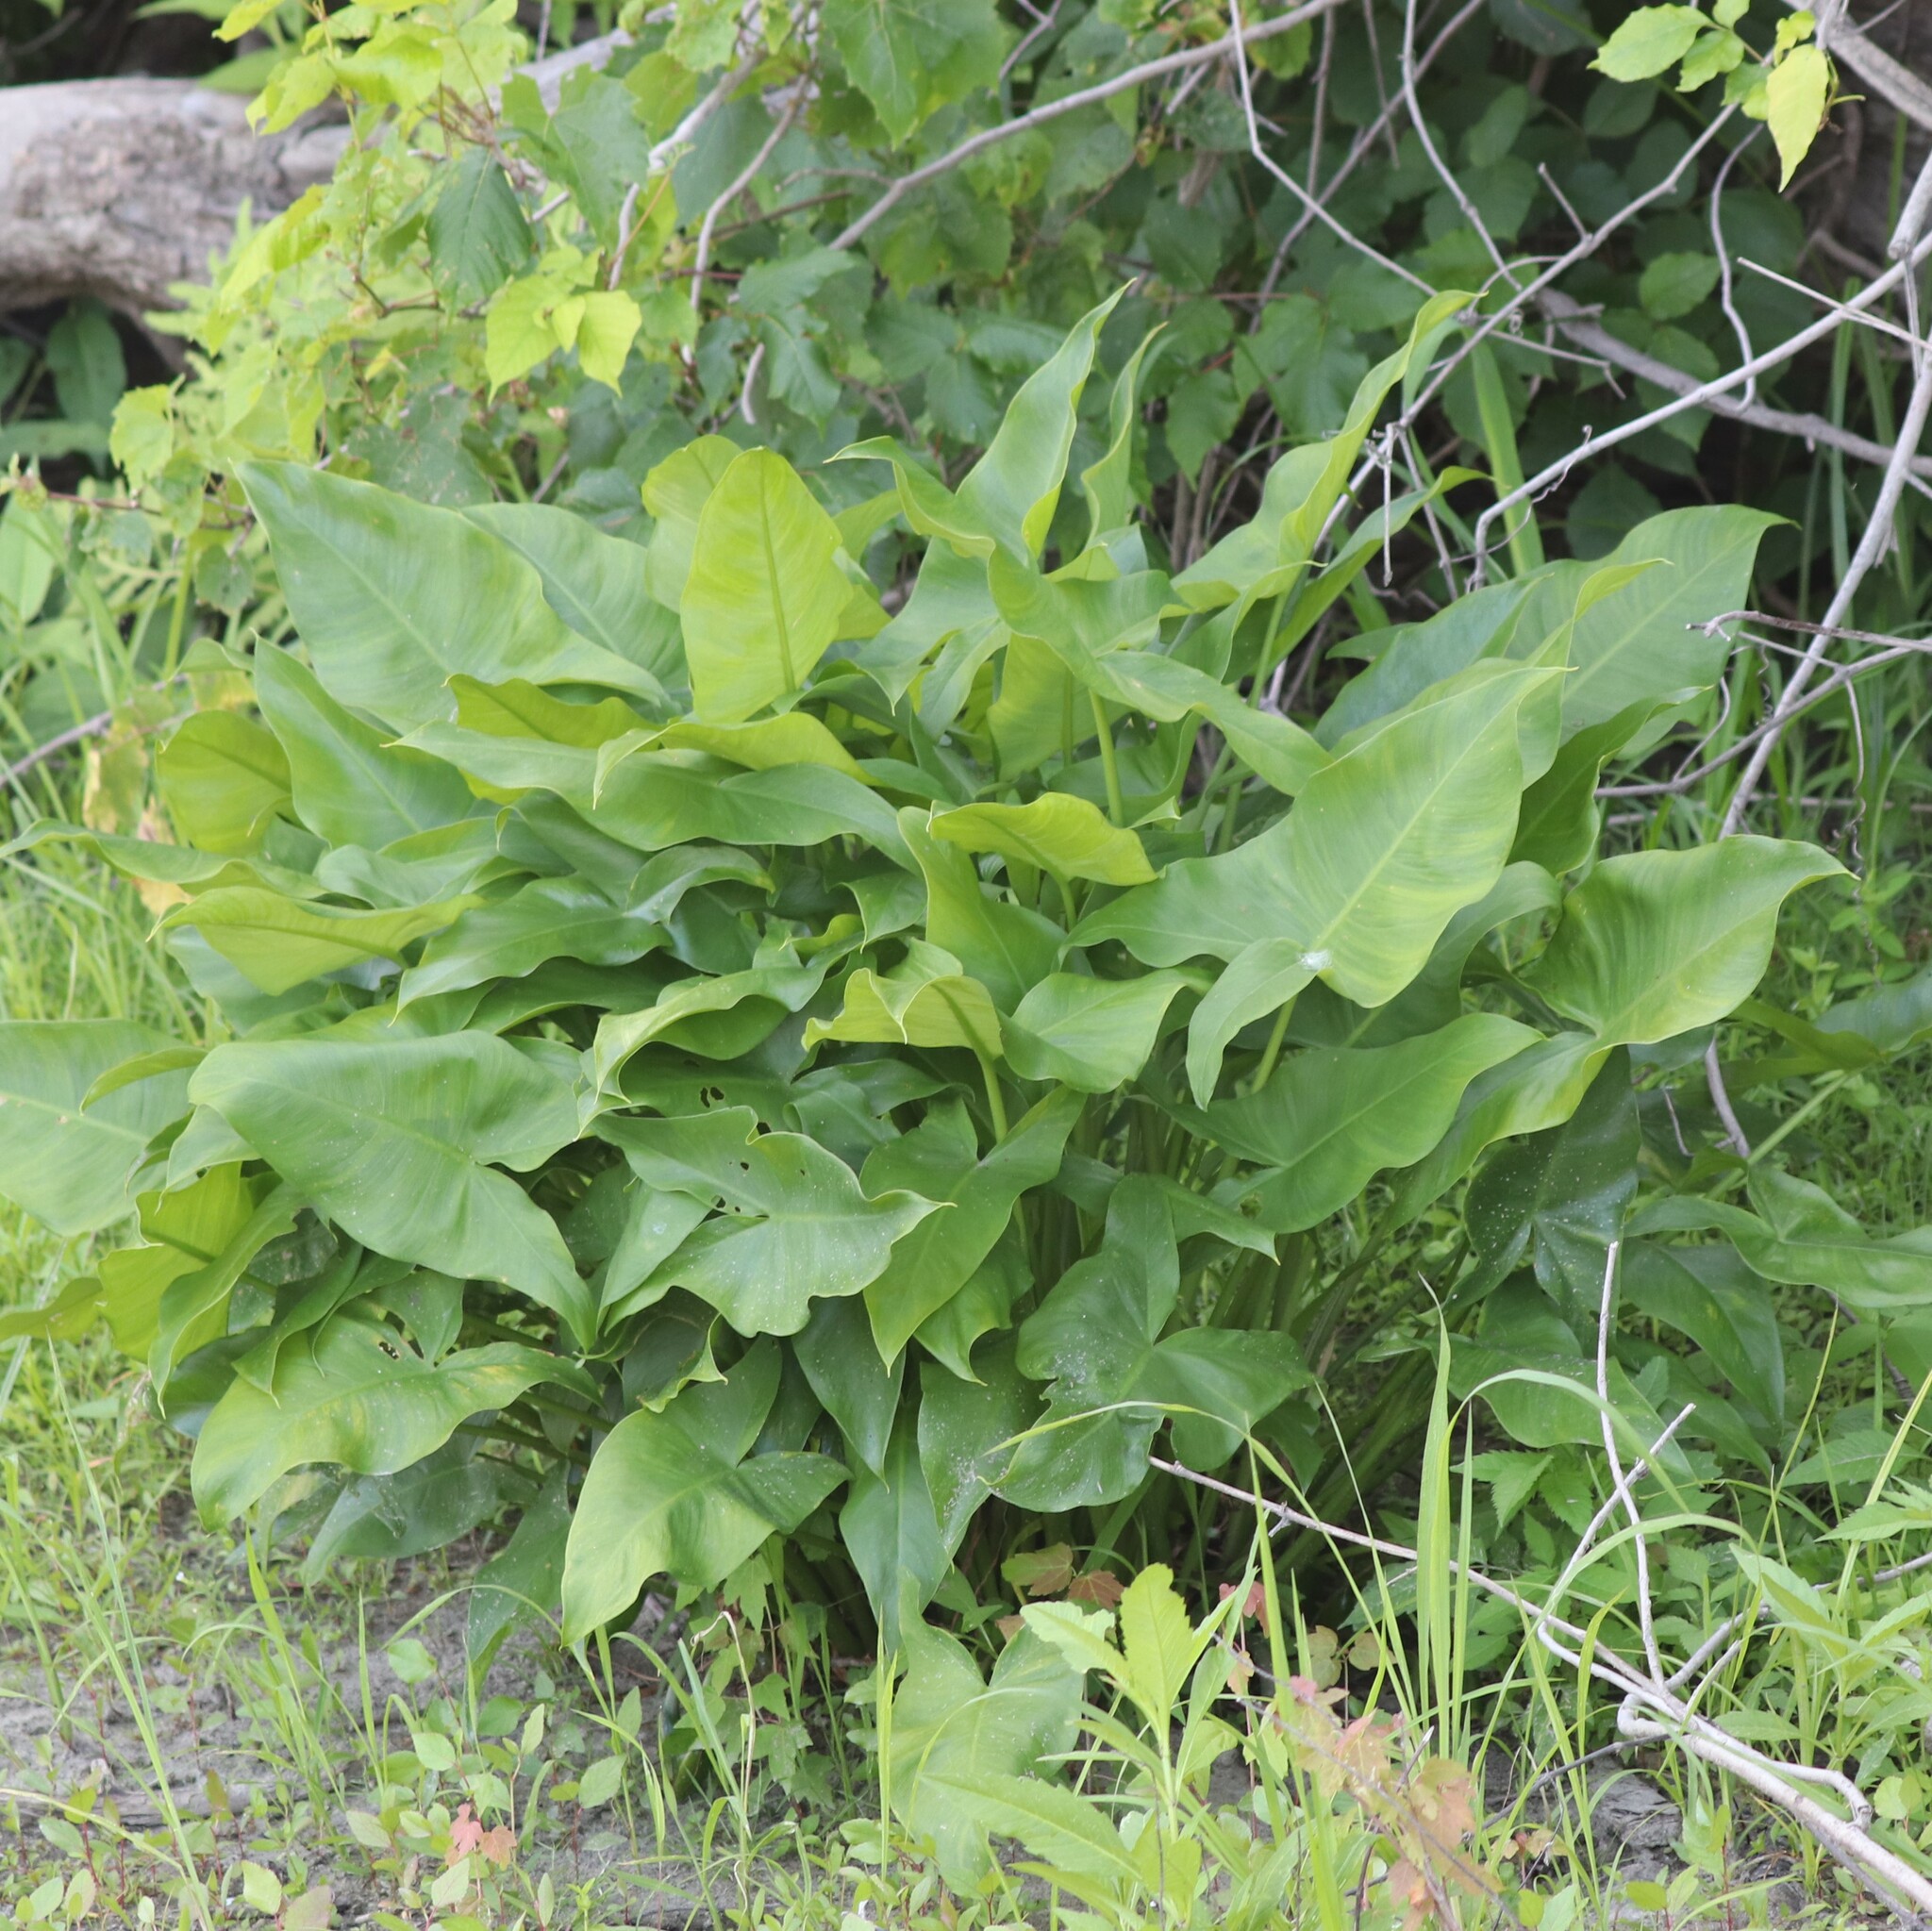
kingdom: Plantae
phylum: Tracheophyta
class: Liliopsida
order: Alismatales
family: Araceae
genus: Peltandra
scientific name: Peltandra virginica
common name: Arrow arum
